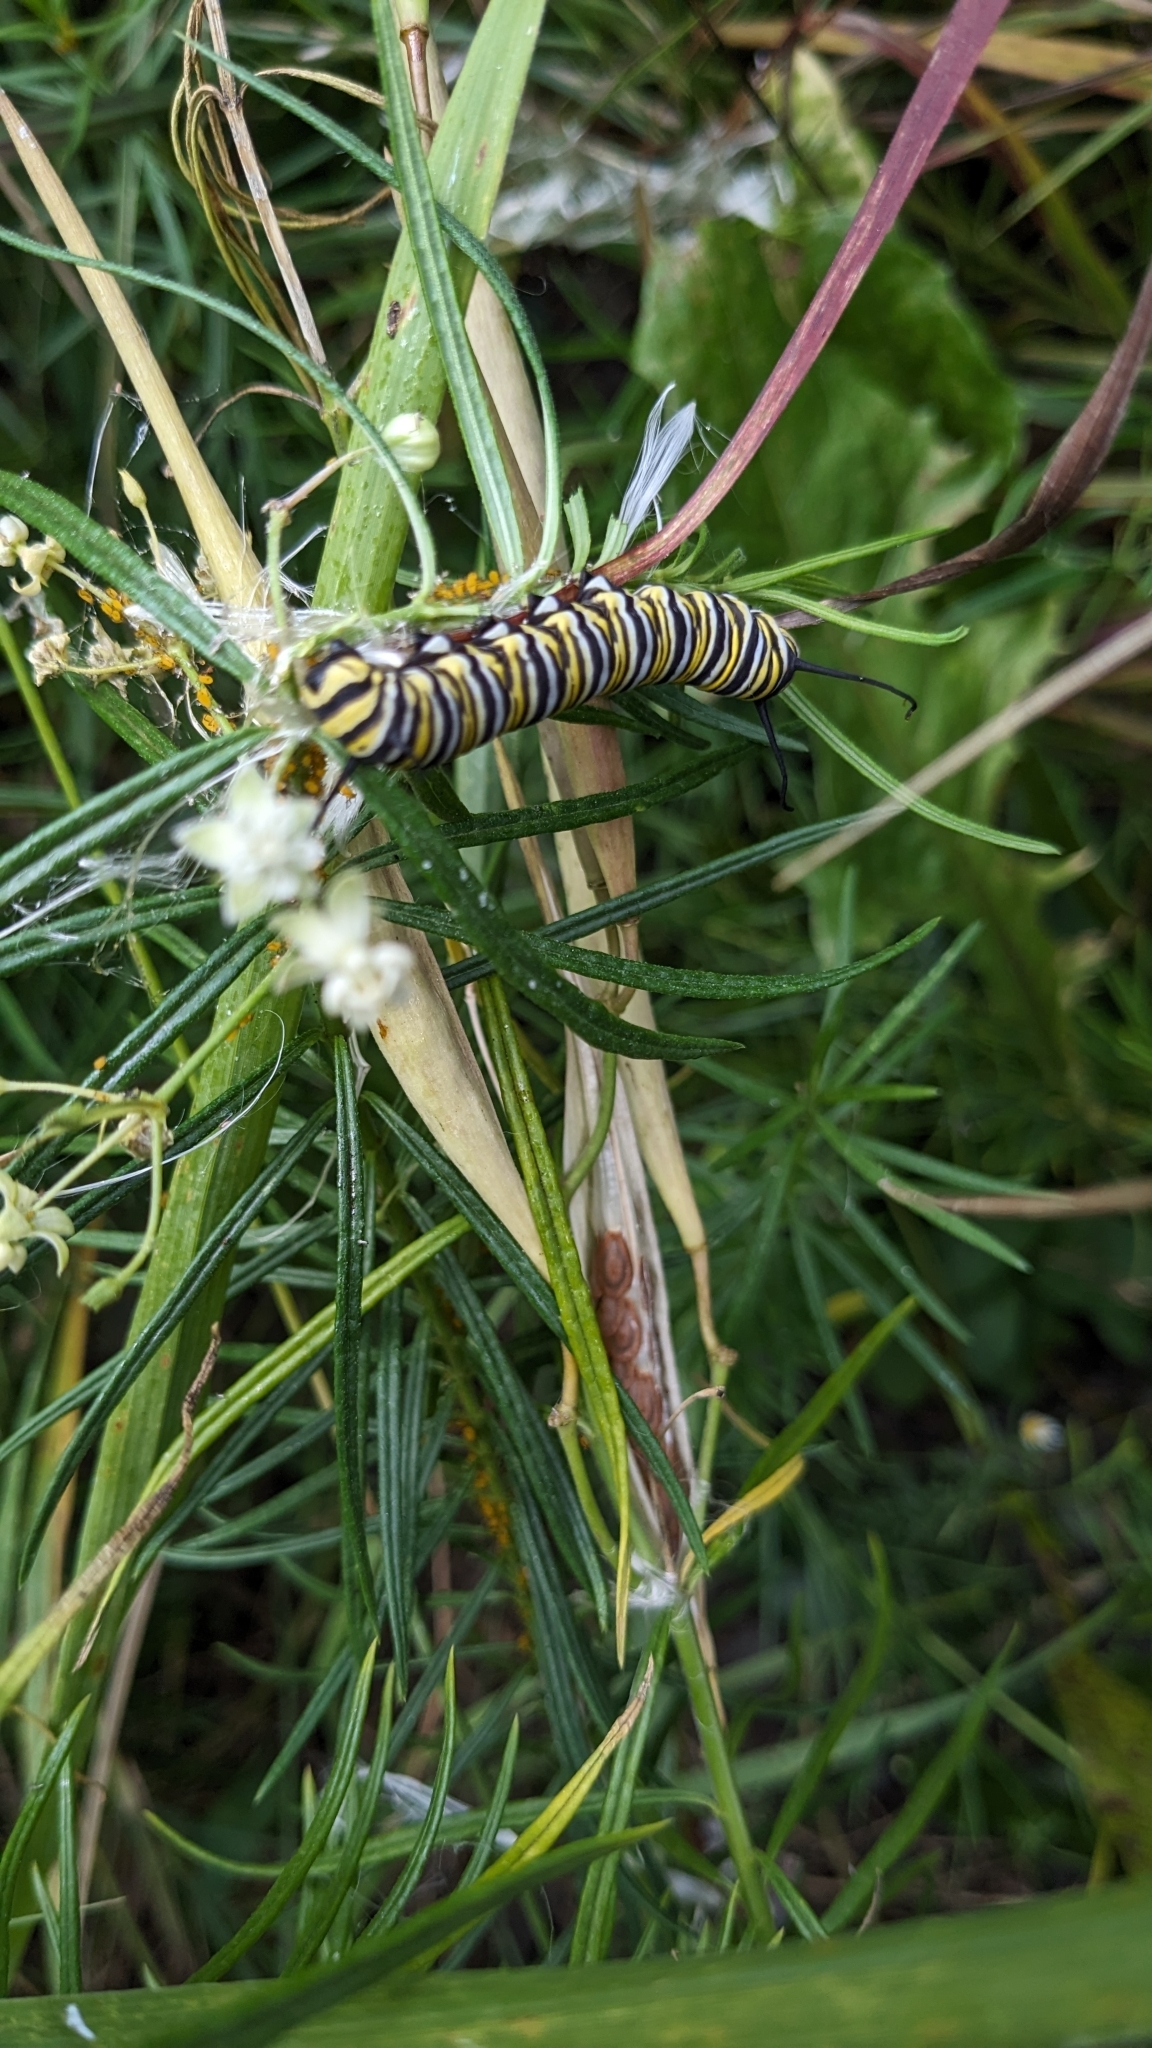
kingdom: Animalia
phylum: Arthropoda
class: Insecta
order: Lepidoptera
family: Nymphalidae
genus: Danaus
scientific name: Danaus plexippus
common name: Monarch
